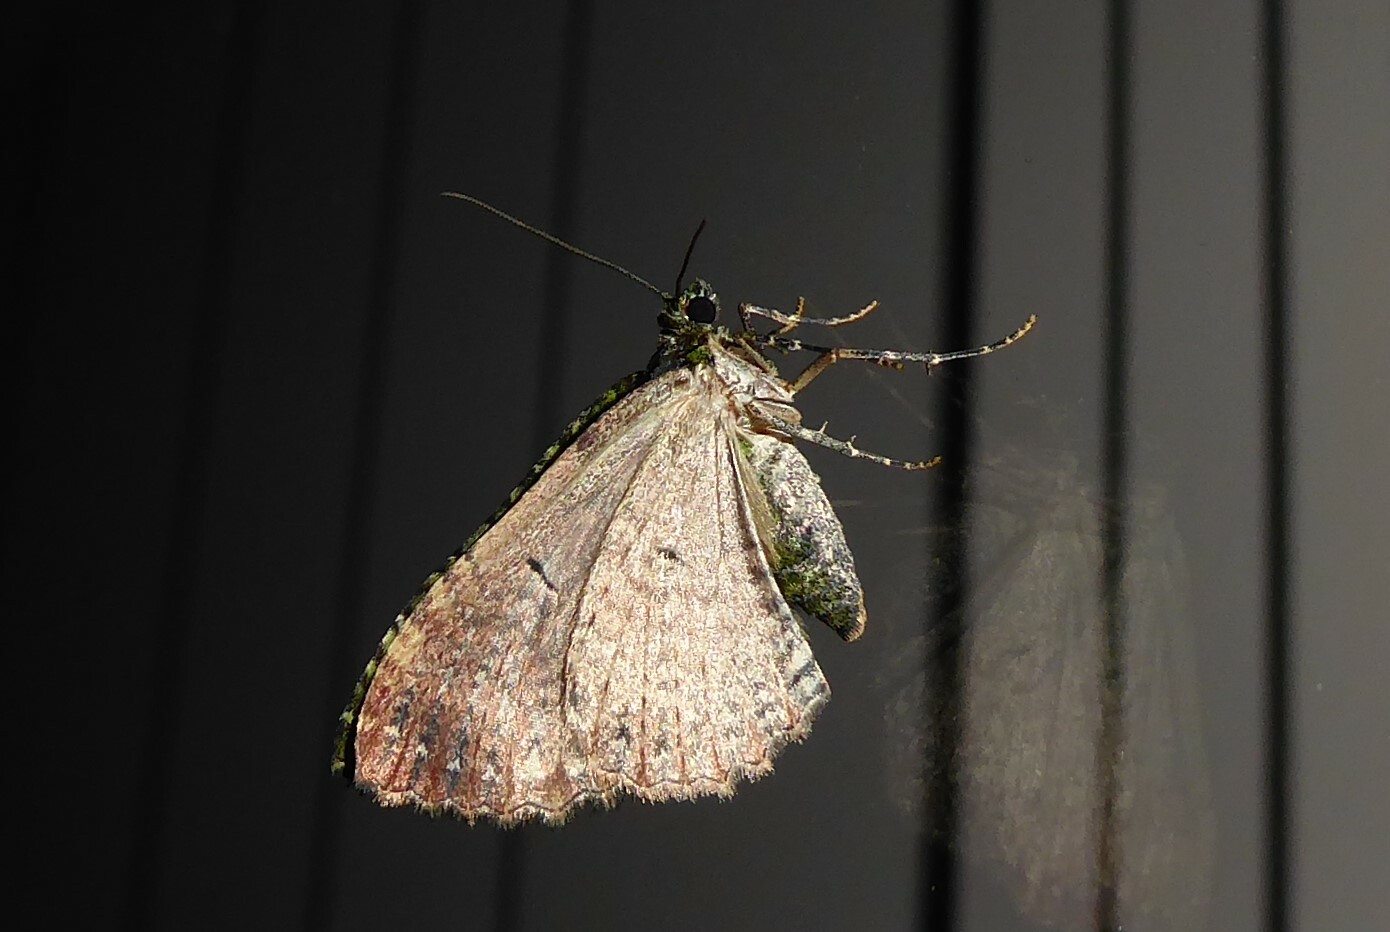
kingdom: Animalia
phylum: Arthropoda
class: Insecta
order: Lepidoptera
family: Geometridae
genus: Austrocidaria
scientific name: Austrocidaria similata
